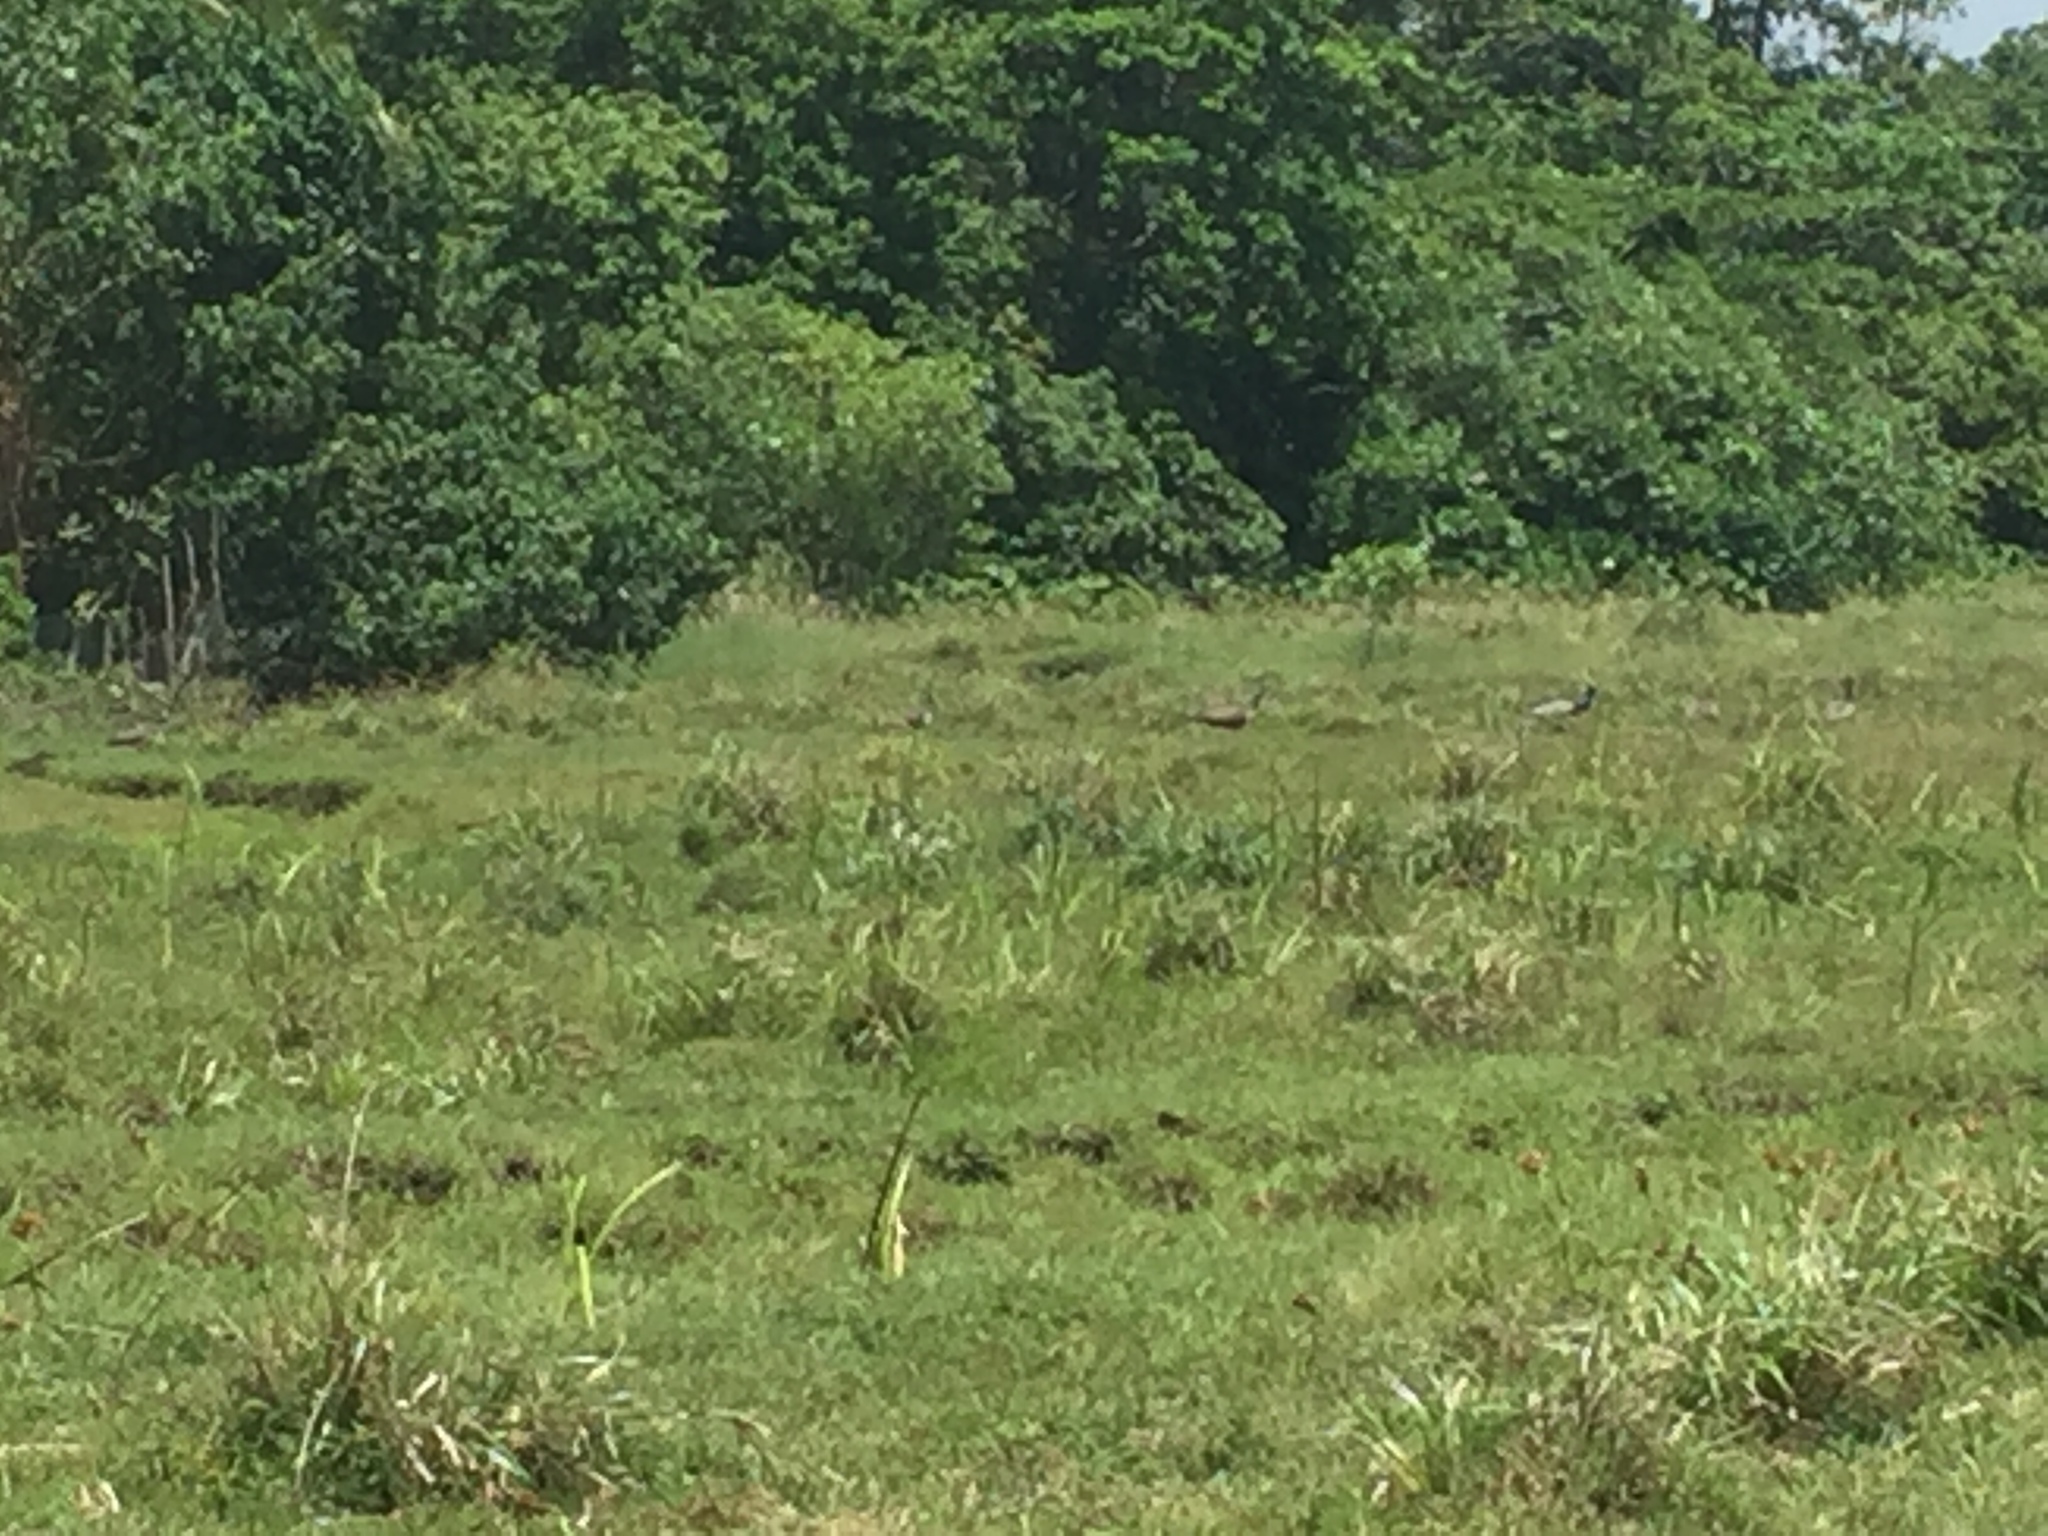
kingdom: Animalia
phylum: Chordata
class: Aves
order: Galliformes
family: Phasianidae
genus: Pavo
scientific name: Pavo cristatus
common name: Indian peafowl
